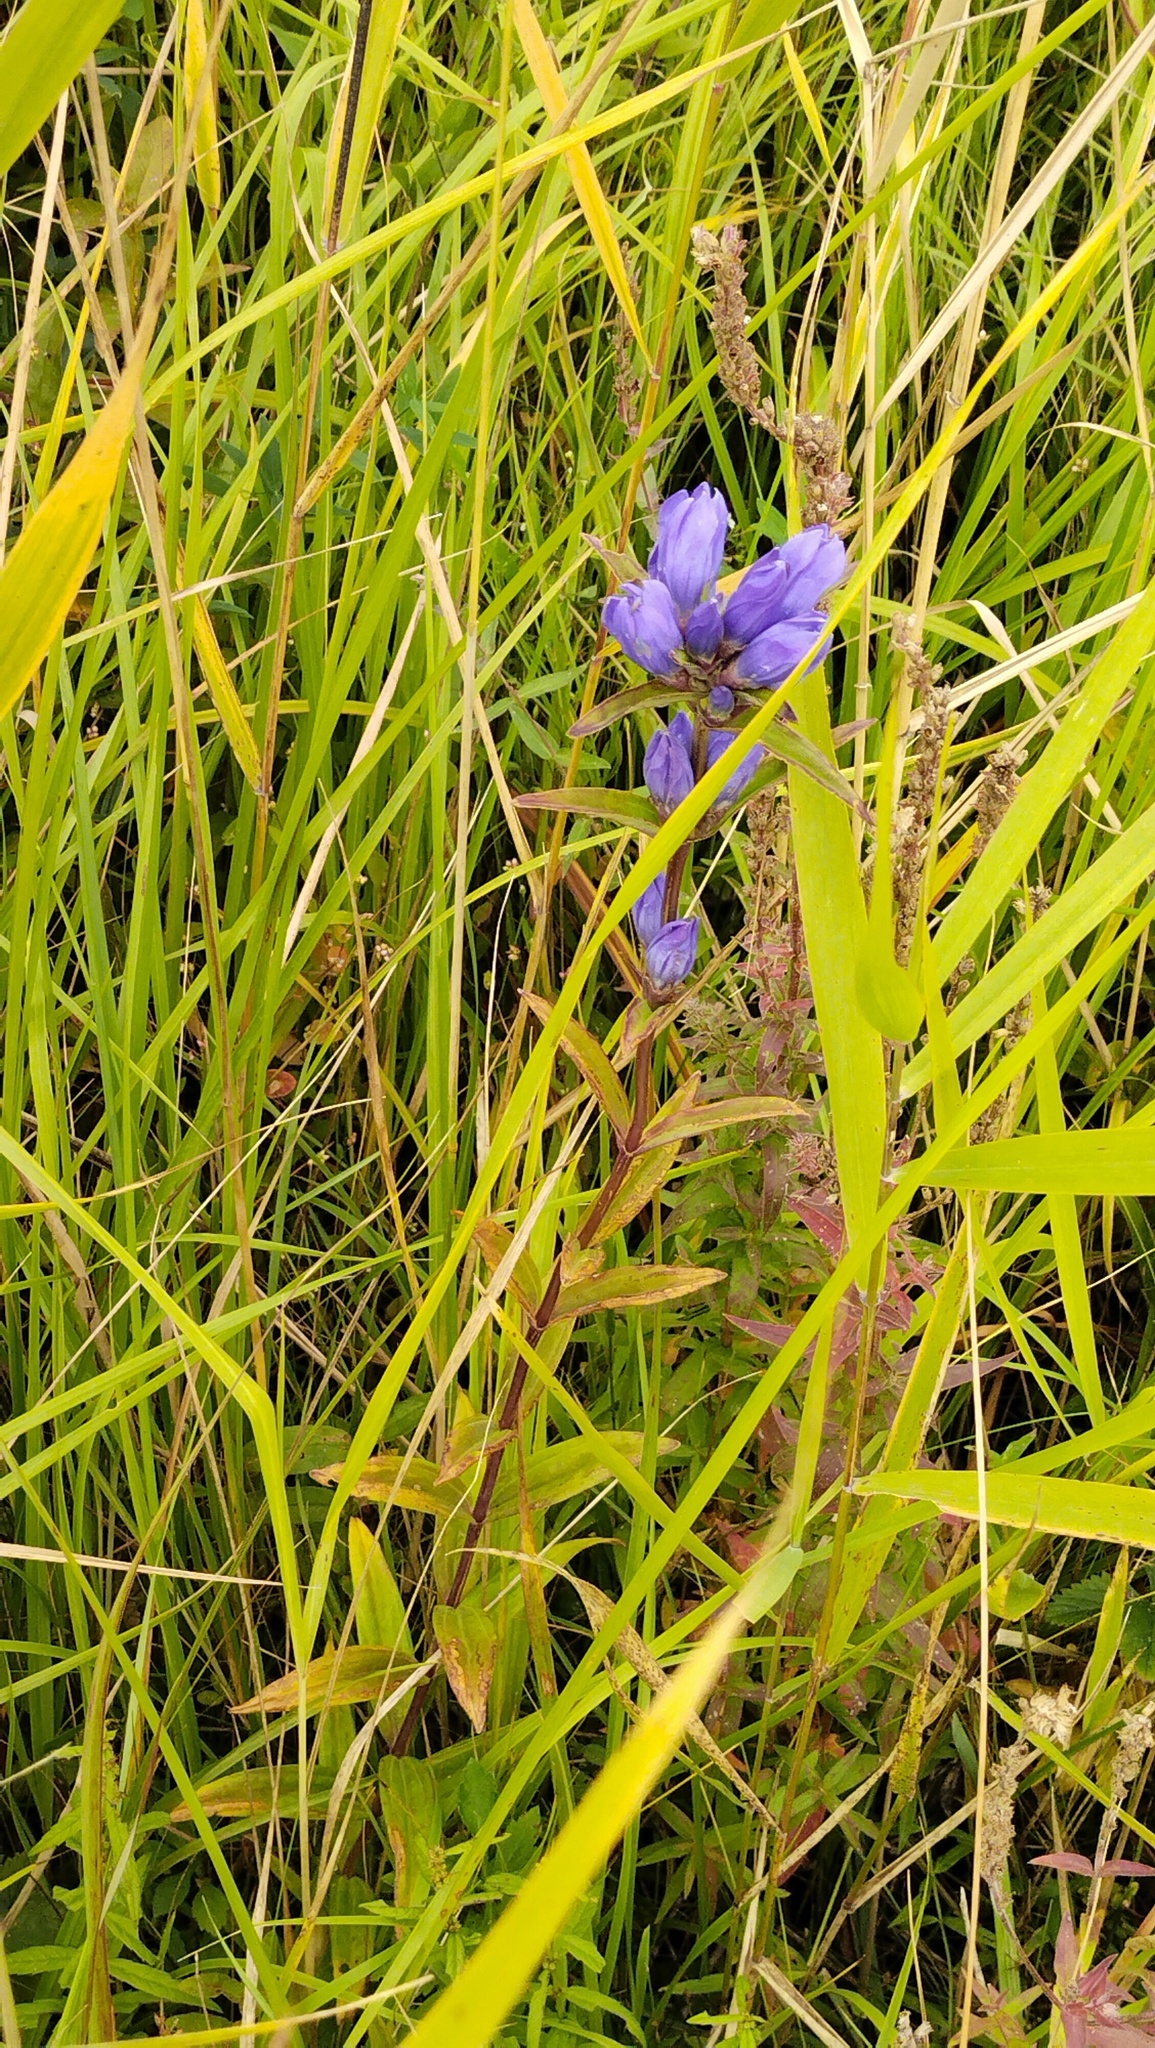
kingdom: Plantae
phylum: Tracheophyta
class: Magnoliopsida
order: Gentianales
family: Gentianaceae
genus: Gentiana
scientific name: Gentiana triflora
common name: Three-flower gentian
